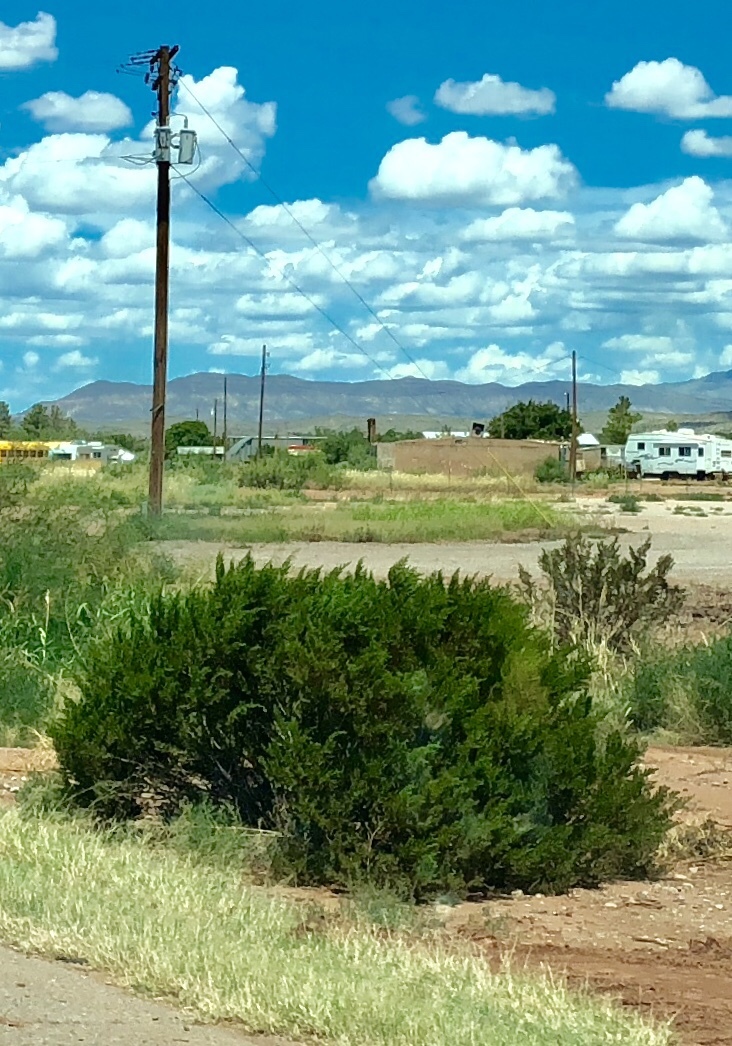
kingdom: Plantae
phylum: Tracheophyta
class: Magnoliopsida
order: Zygophyllales
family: Zygophyllaceae
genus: Larrea
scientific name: Larrea tridentata
